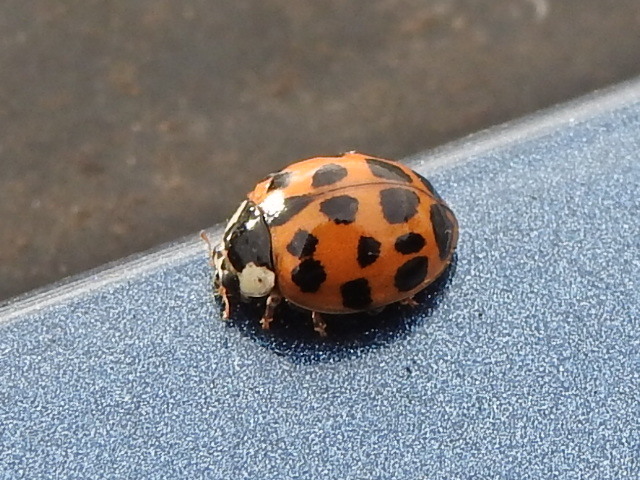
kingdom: Animalia
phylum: Arthropoda
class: Insecta
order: Coleoptera
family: Coccinellidae
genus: Harmonia
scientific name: Harmonia axyridis
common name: Harlequin ladybird
